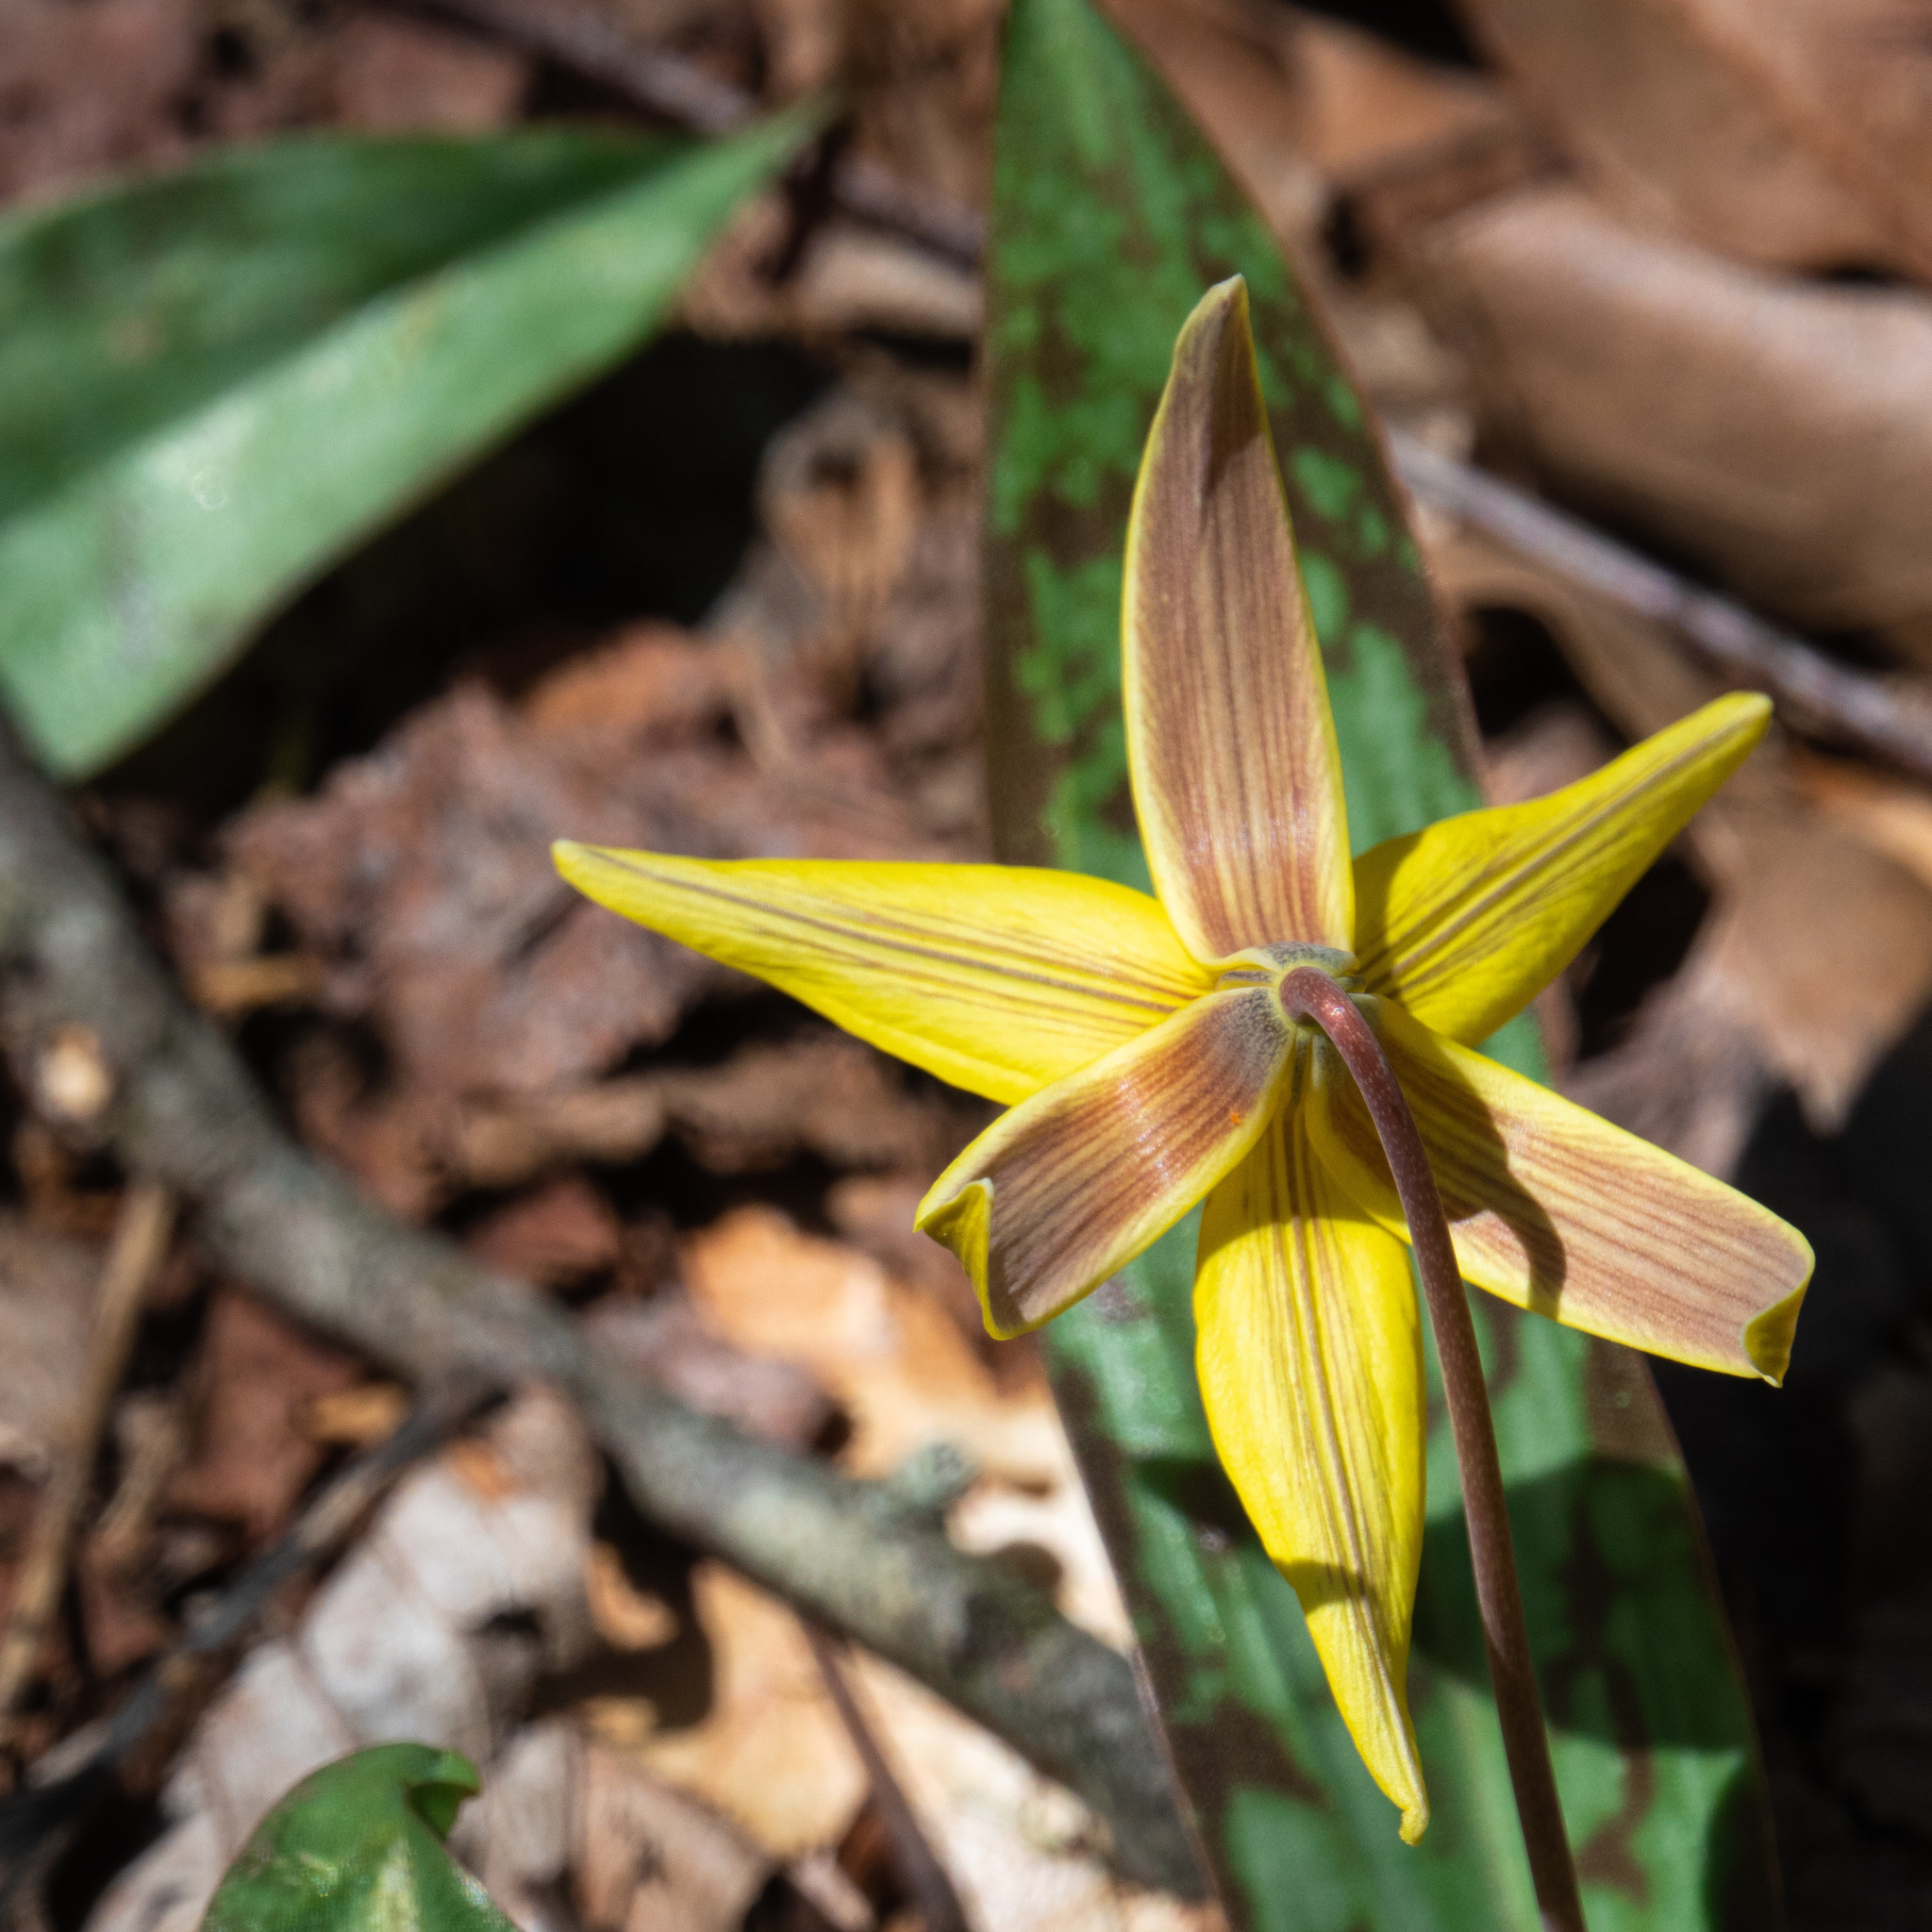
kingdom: Plantae
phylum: Tracheophyta
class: Liliopsida
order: Liliales
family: Liliaceae
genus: Erythronium
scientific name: Erythronium americanum
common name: Yellow adder's-tongue
